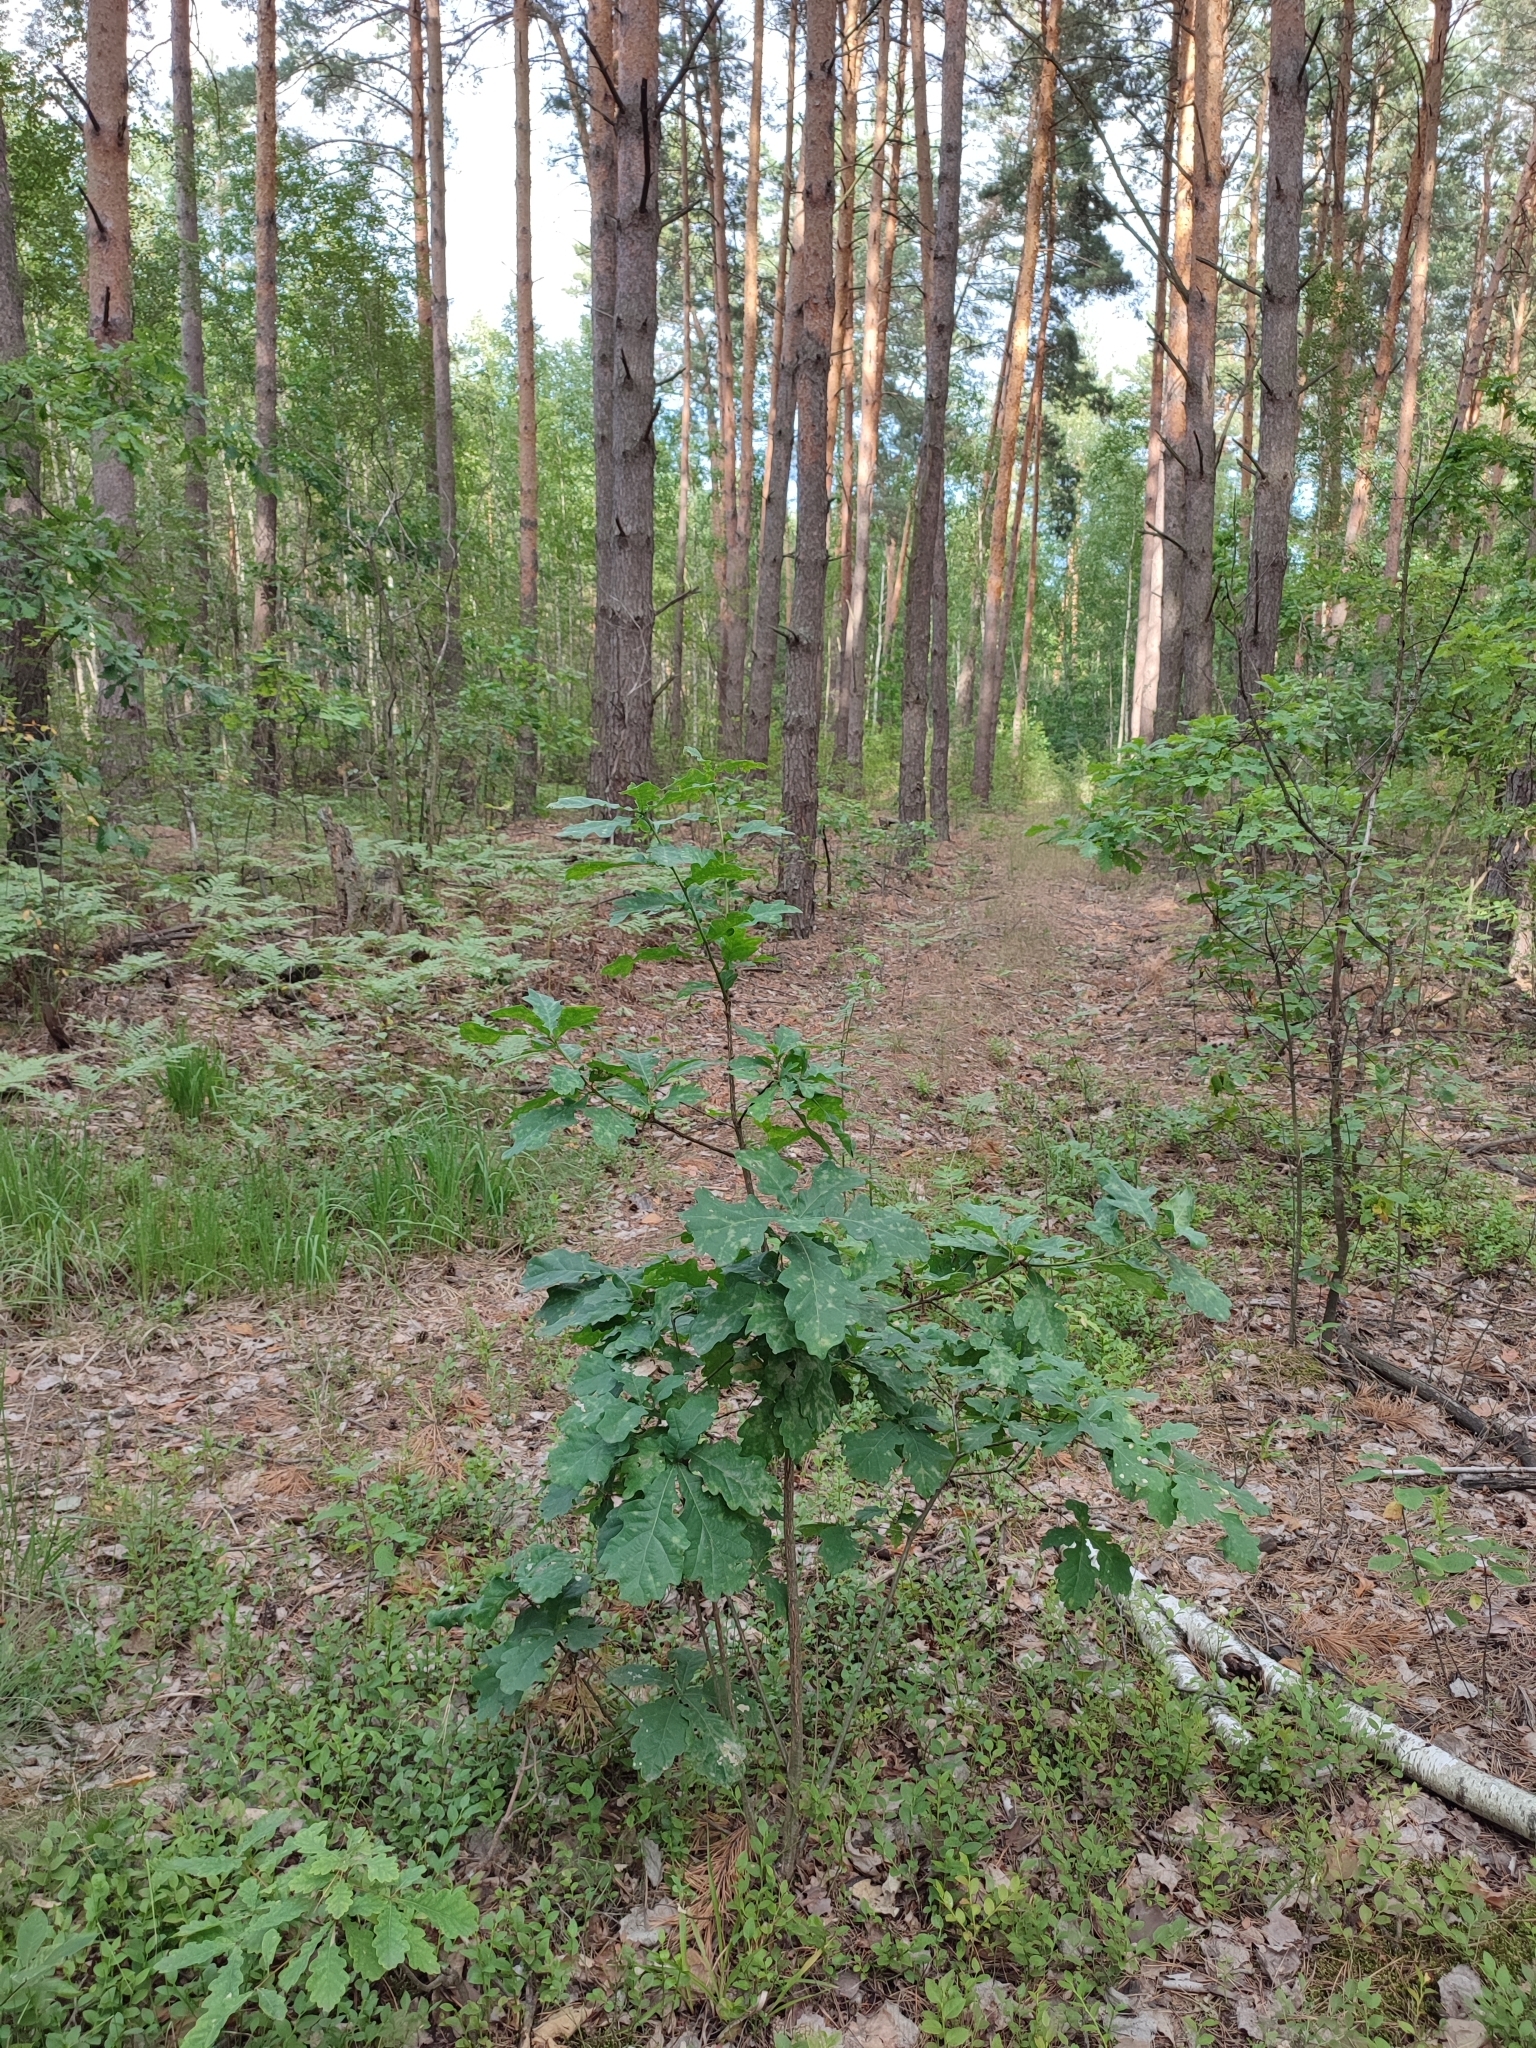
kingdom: Plantae
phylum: Tracheophyta
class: Magnoliopsida
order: Fagales
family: Fagaceae
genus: Quercus
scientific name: Quercus robur
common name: Pedunculate oak
